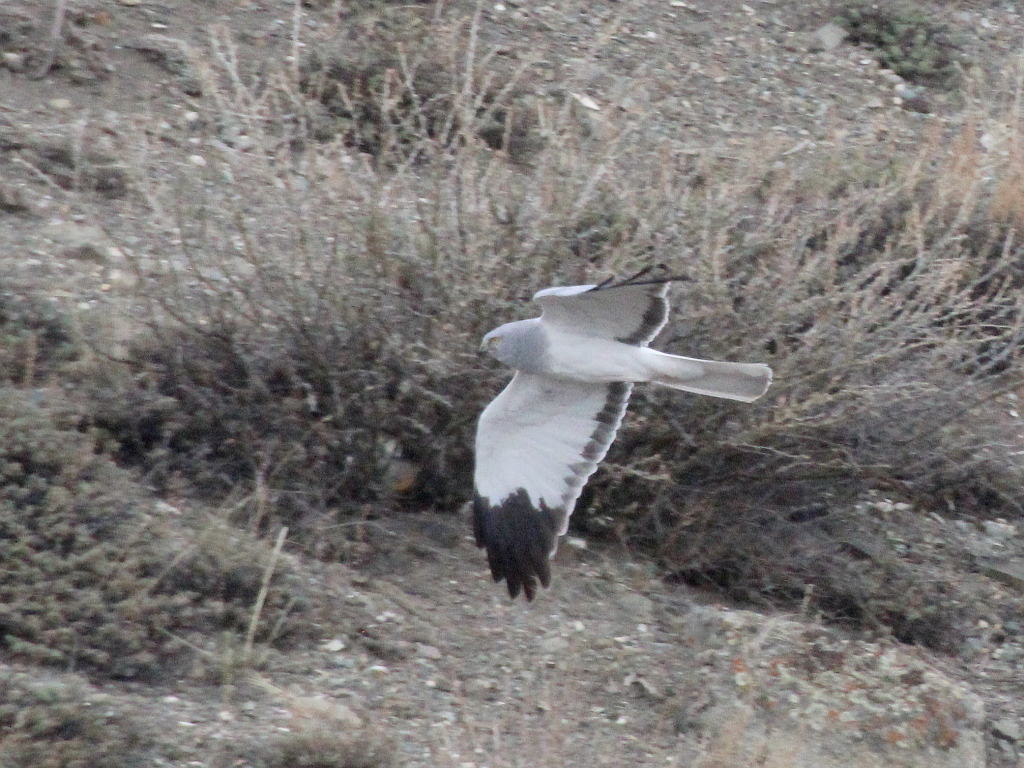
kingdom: Animalia
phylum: Chordata
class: Aves
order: Accipitriformes
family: Accipitridae
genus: Circus
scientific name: Circus cyaneus
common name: Hen harrier
